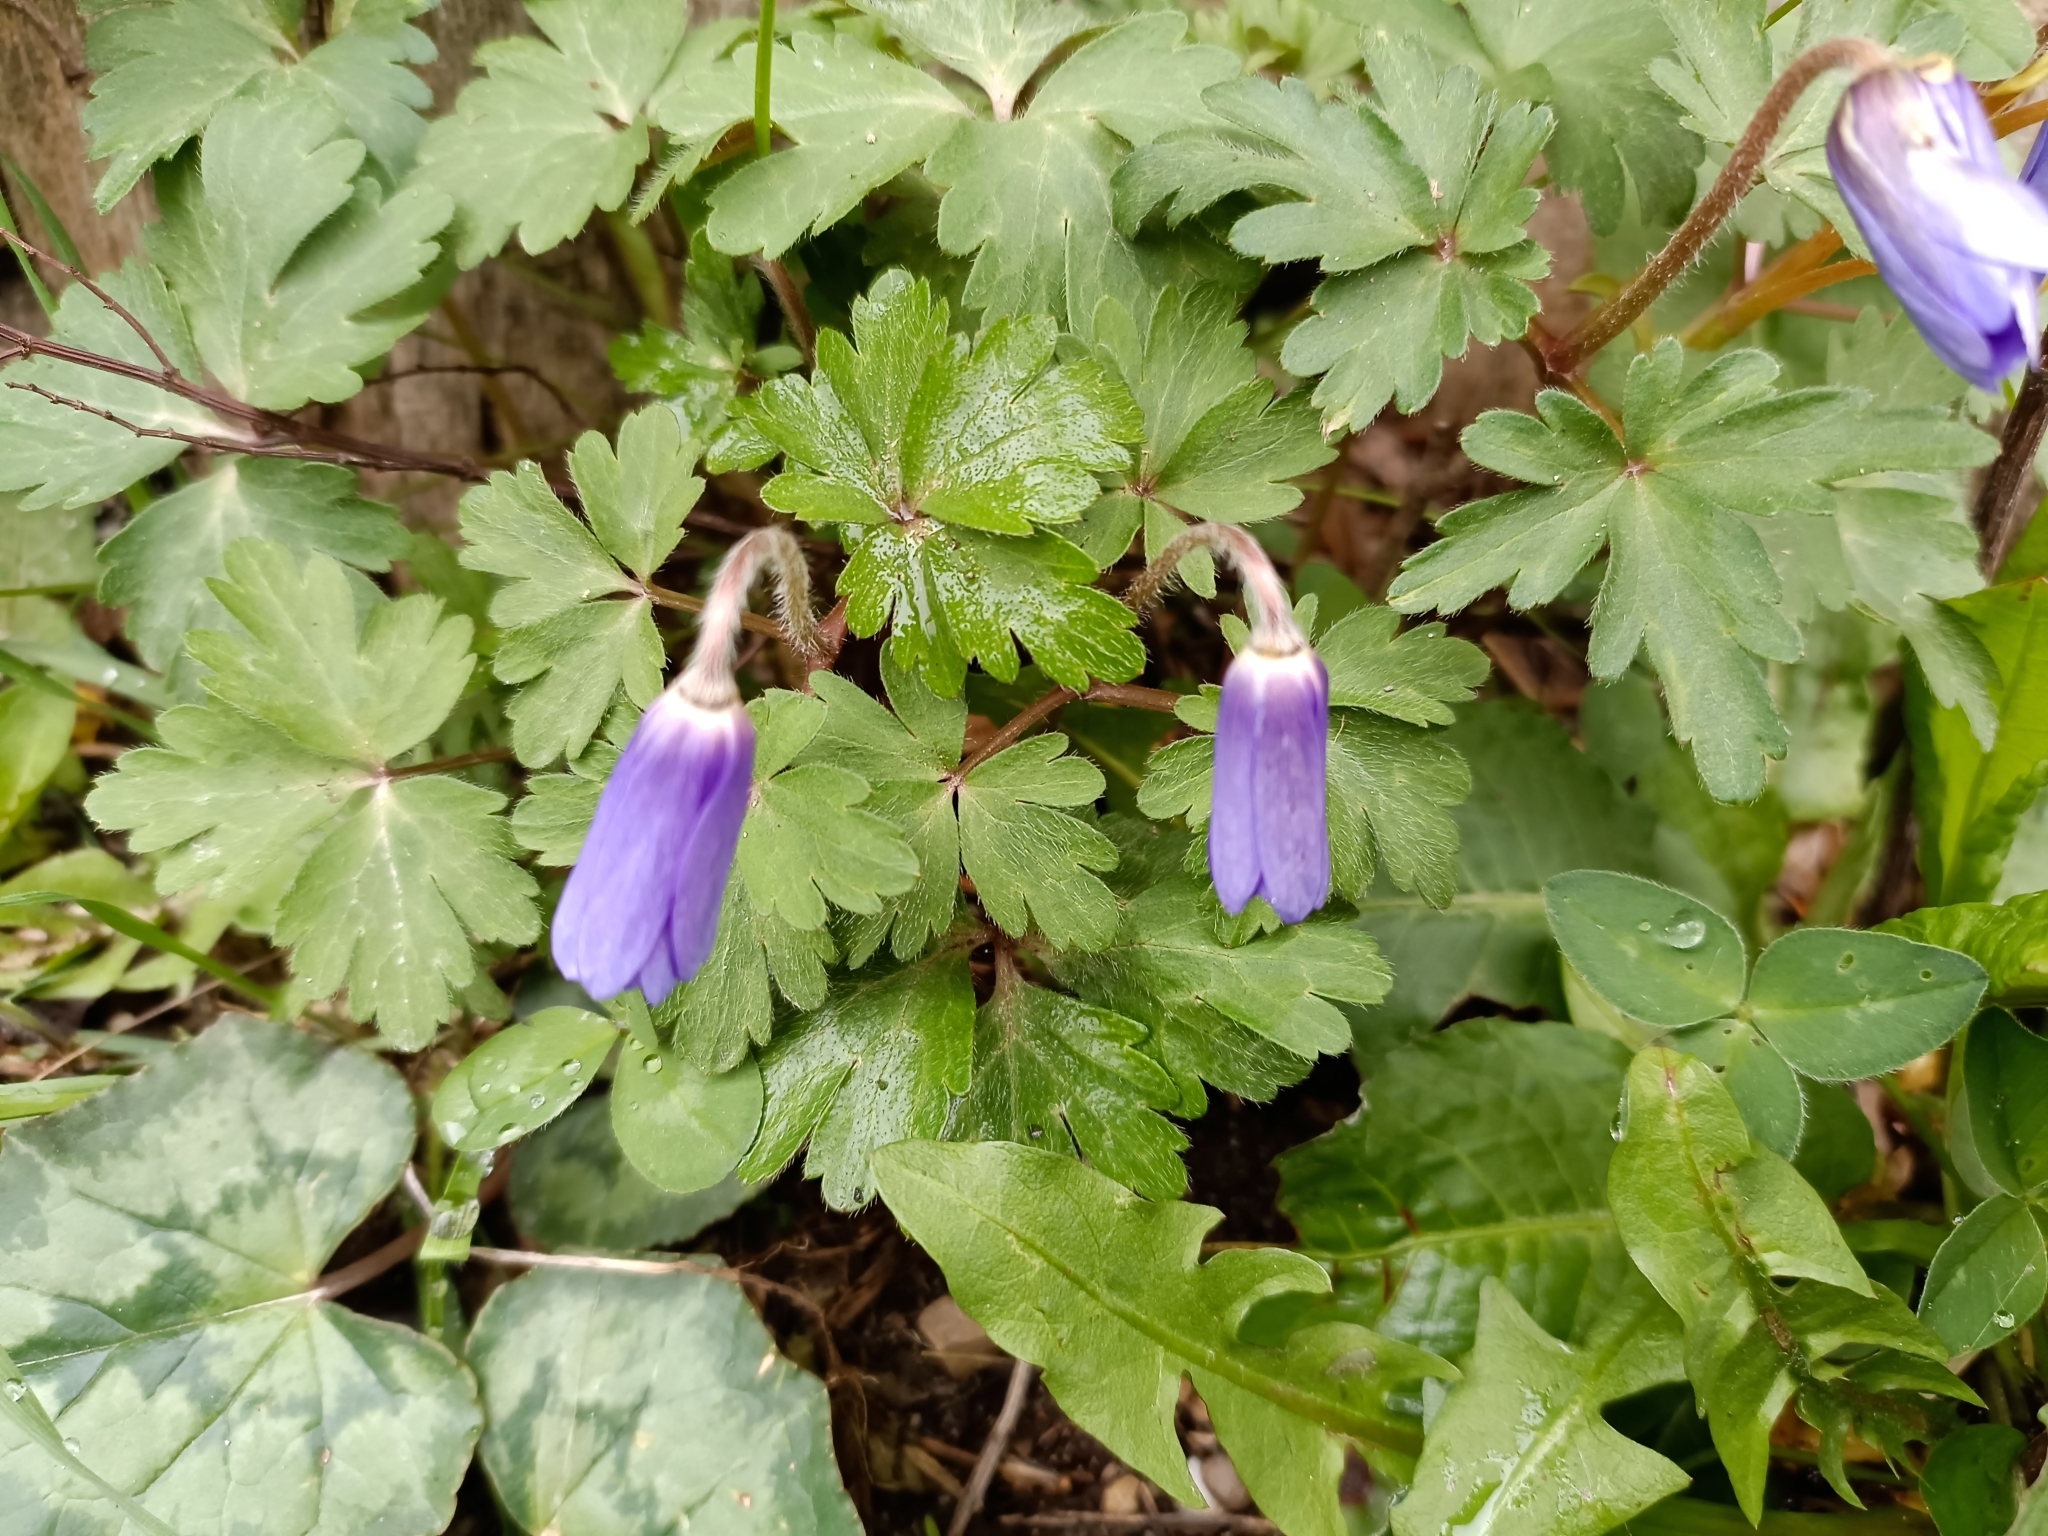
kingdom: Plantae
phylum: Tracheophyta
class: Magnoliopsida
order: Ranunculales
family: Ranunculaceae
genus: Anemone
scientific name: Anemone blanda
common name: Balkan anemone
